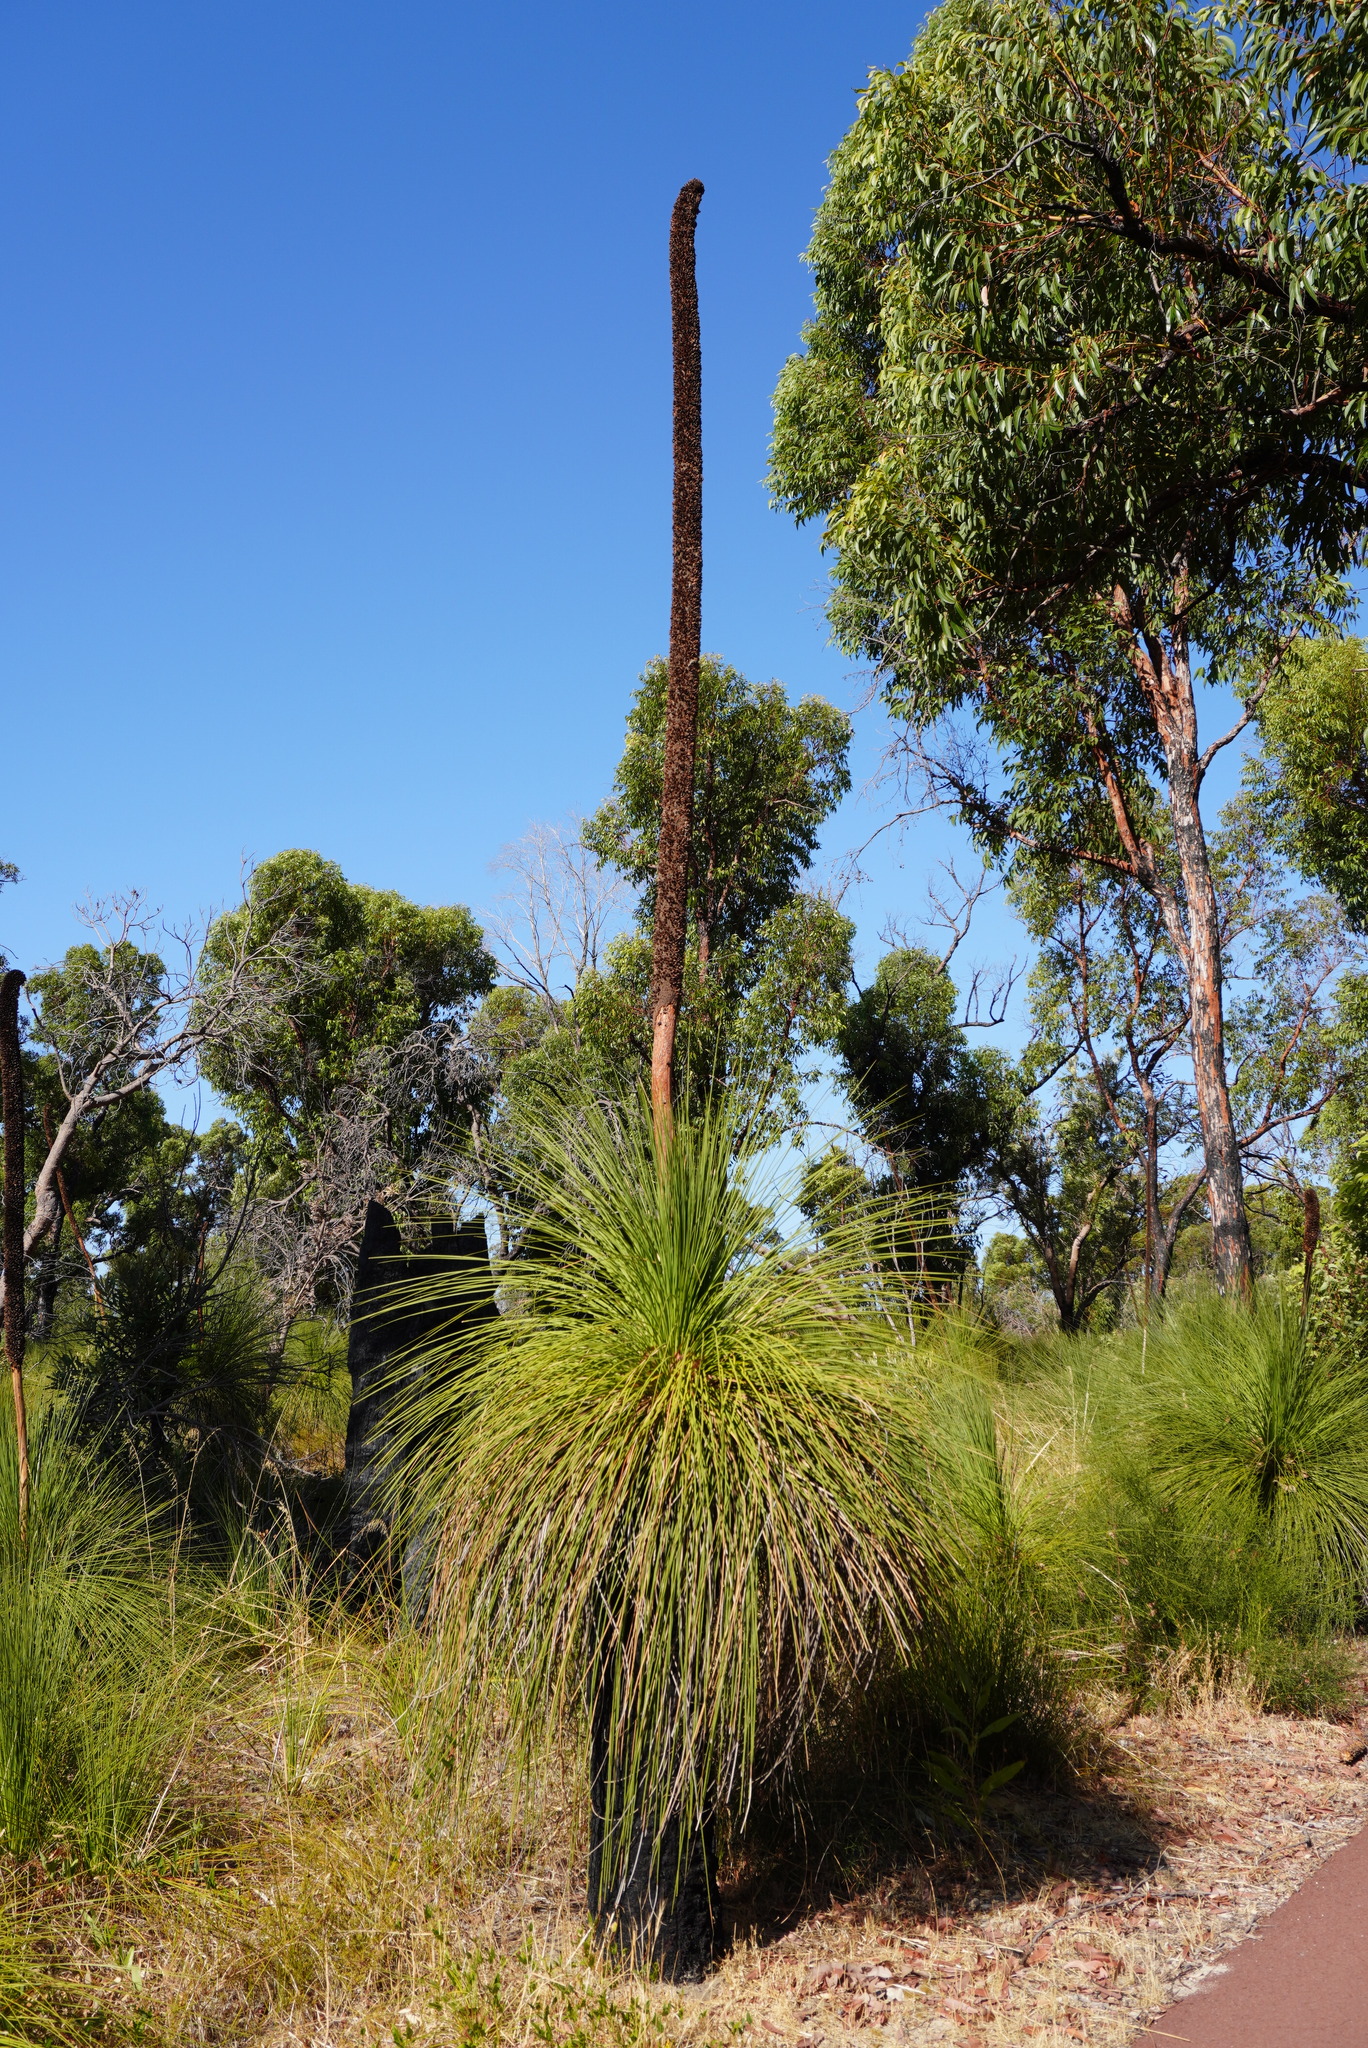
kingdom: Plantae
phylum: Tracheophyta
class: Liliopsida
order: Asparagales
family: Asphodelaceae
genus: Xanthorrhoea
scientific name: Xanthorrhoea preissii
